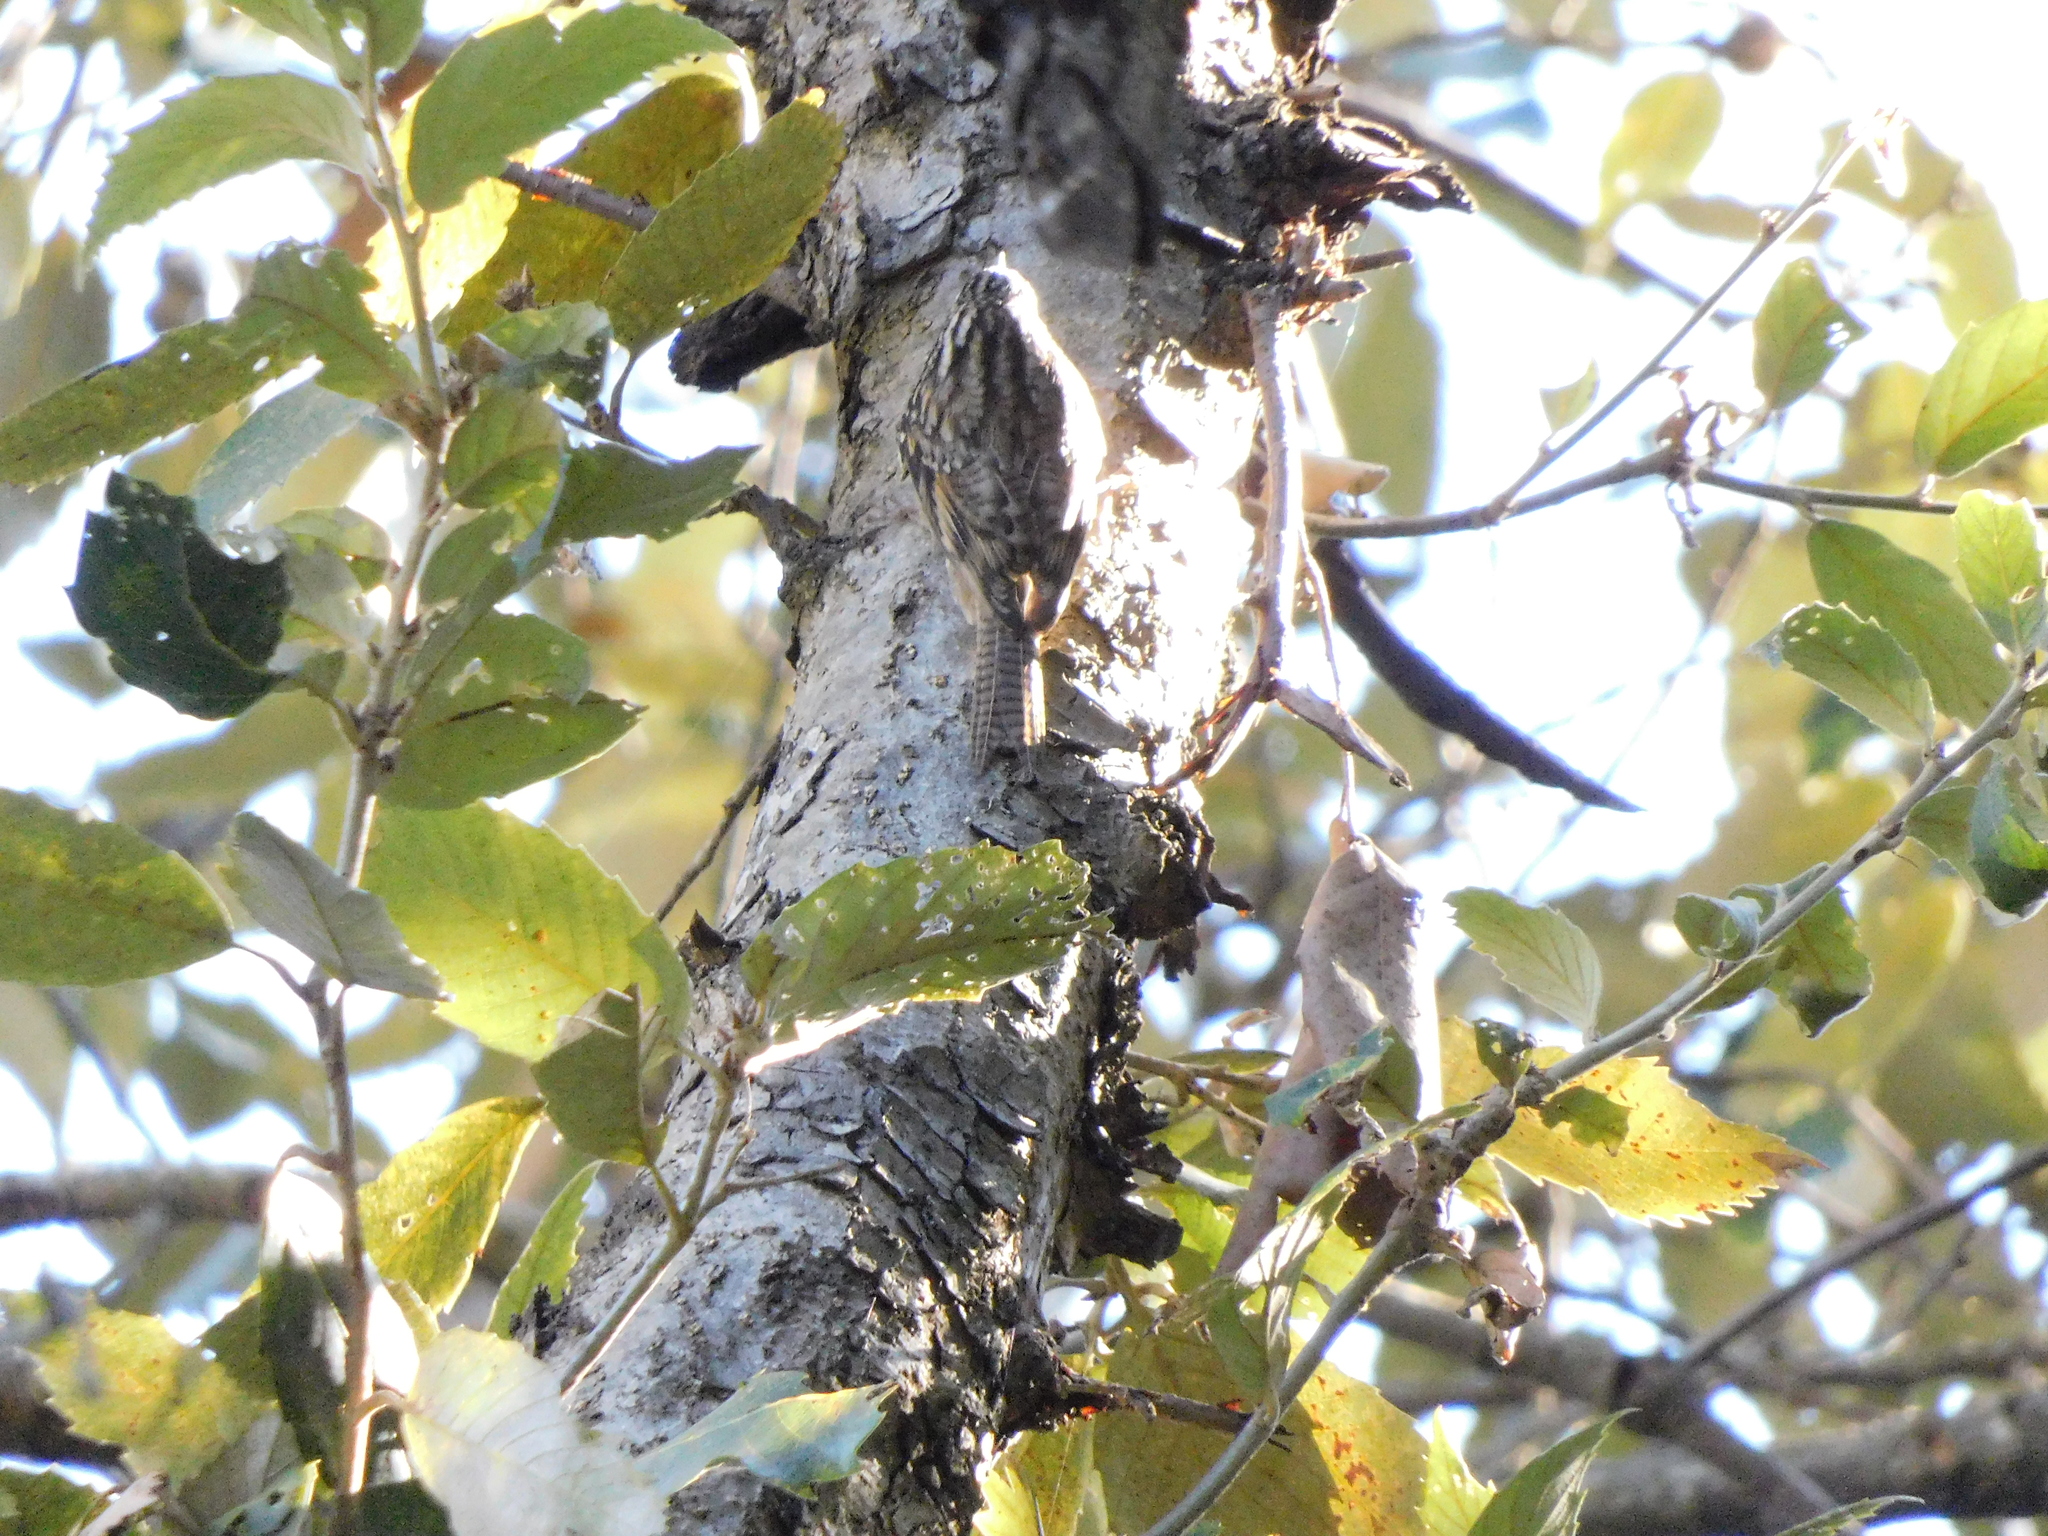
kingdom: Animalia
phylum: Chordata
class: Aves
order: Passeriformes
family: Certhiidae
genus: Certhia
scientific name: Certhia himalayana
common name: Bar-tailed treecreeper
